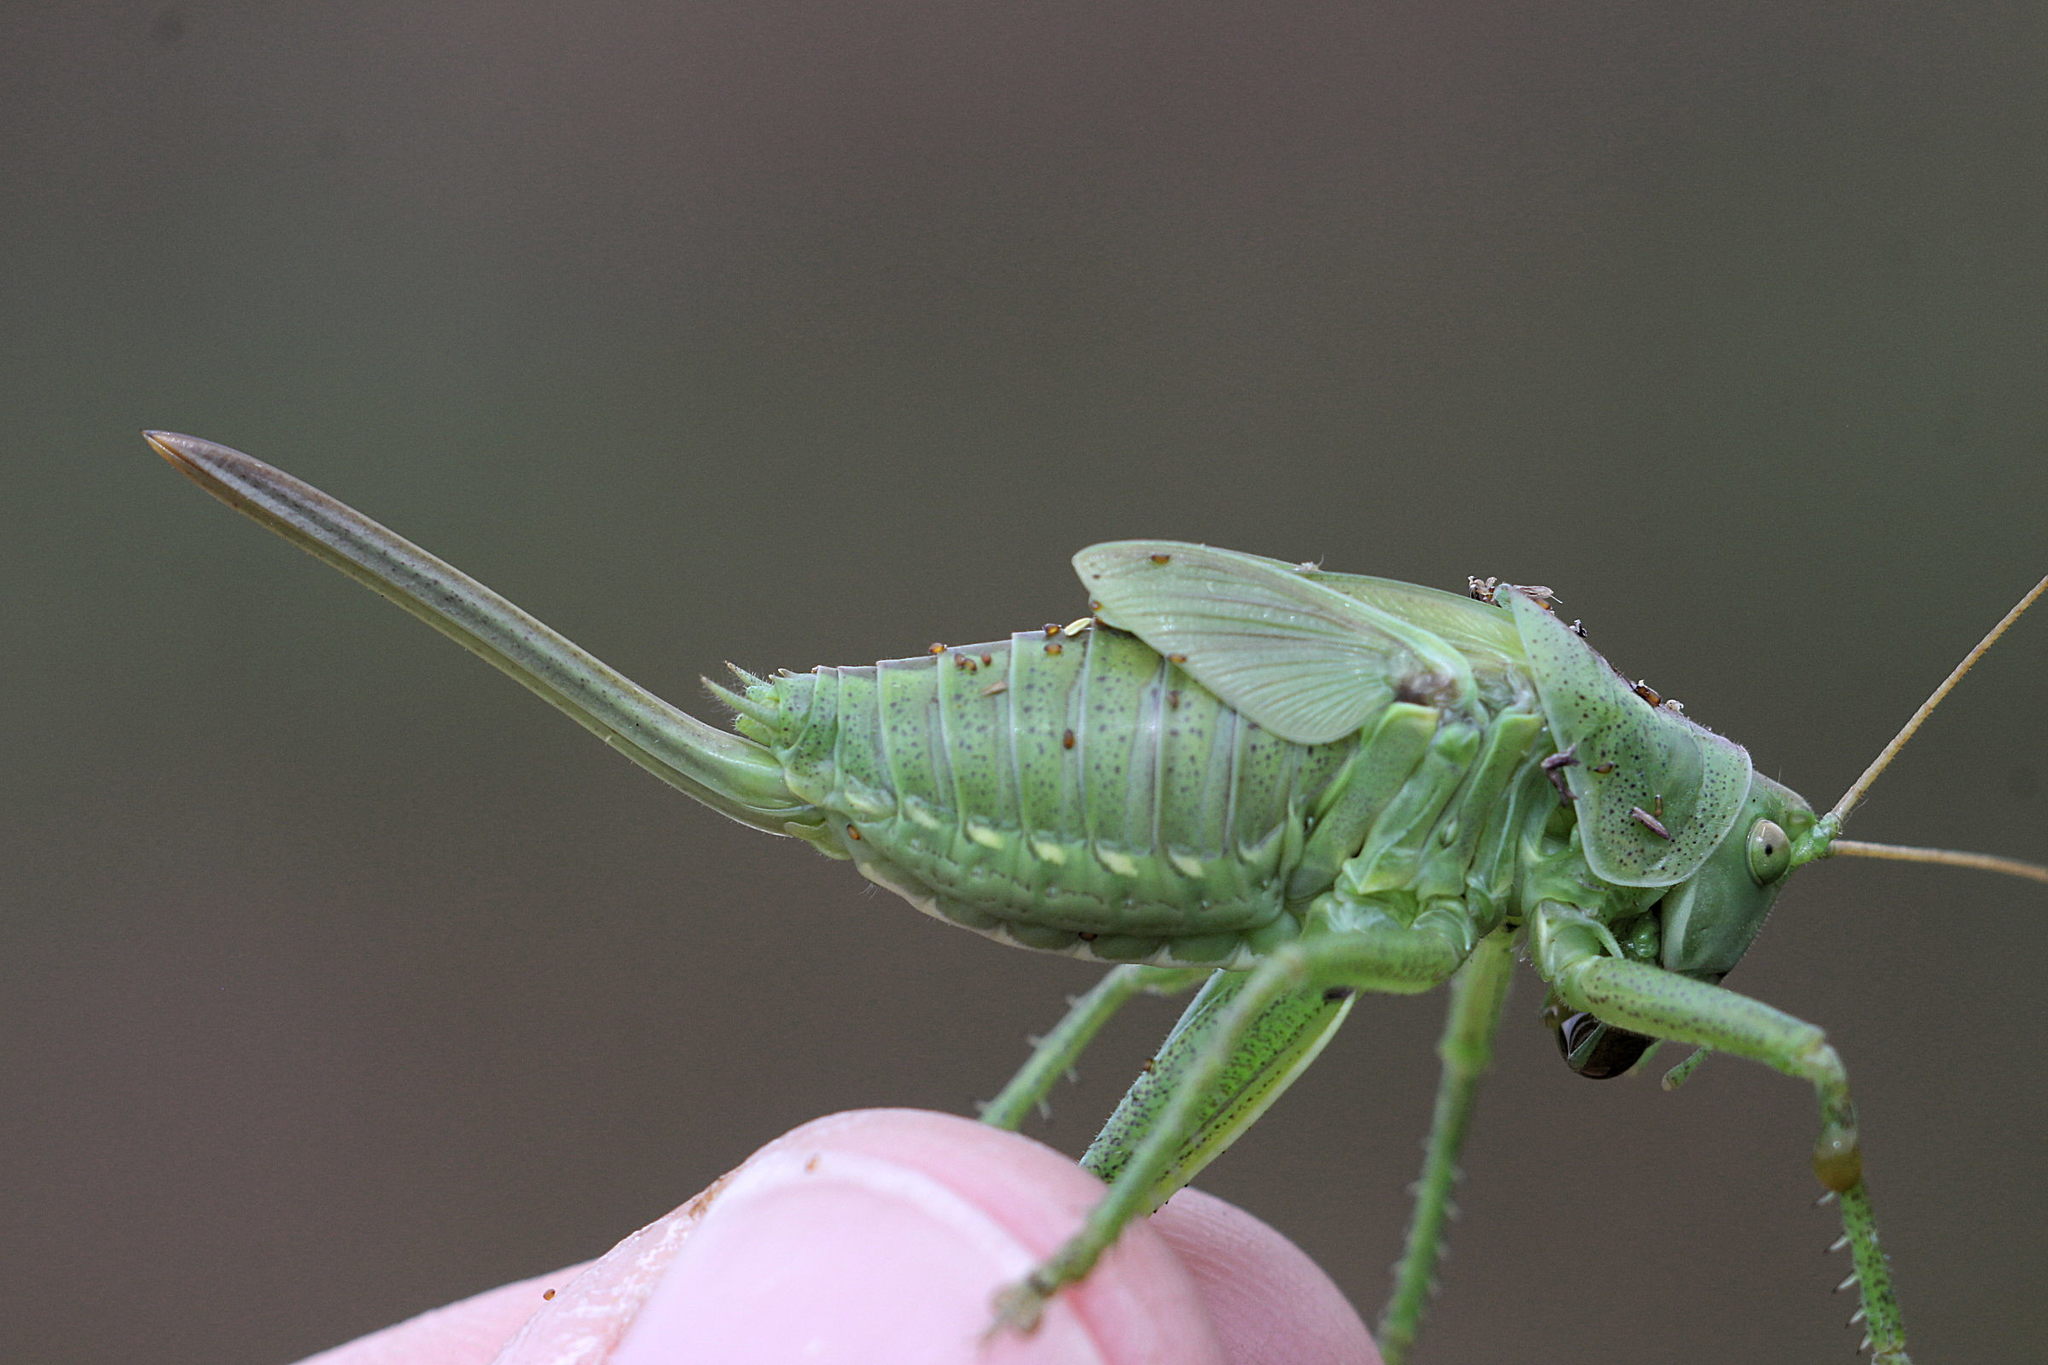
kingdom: Animalia
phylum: Arthropoda
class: Insecta
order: Orthoptera
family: Tettigoniidae
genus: Tettigonia
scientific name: Tettigonia viridissima
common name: Great green bush-cricket
